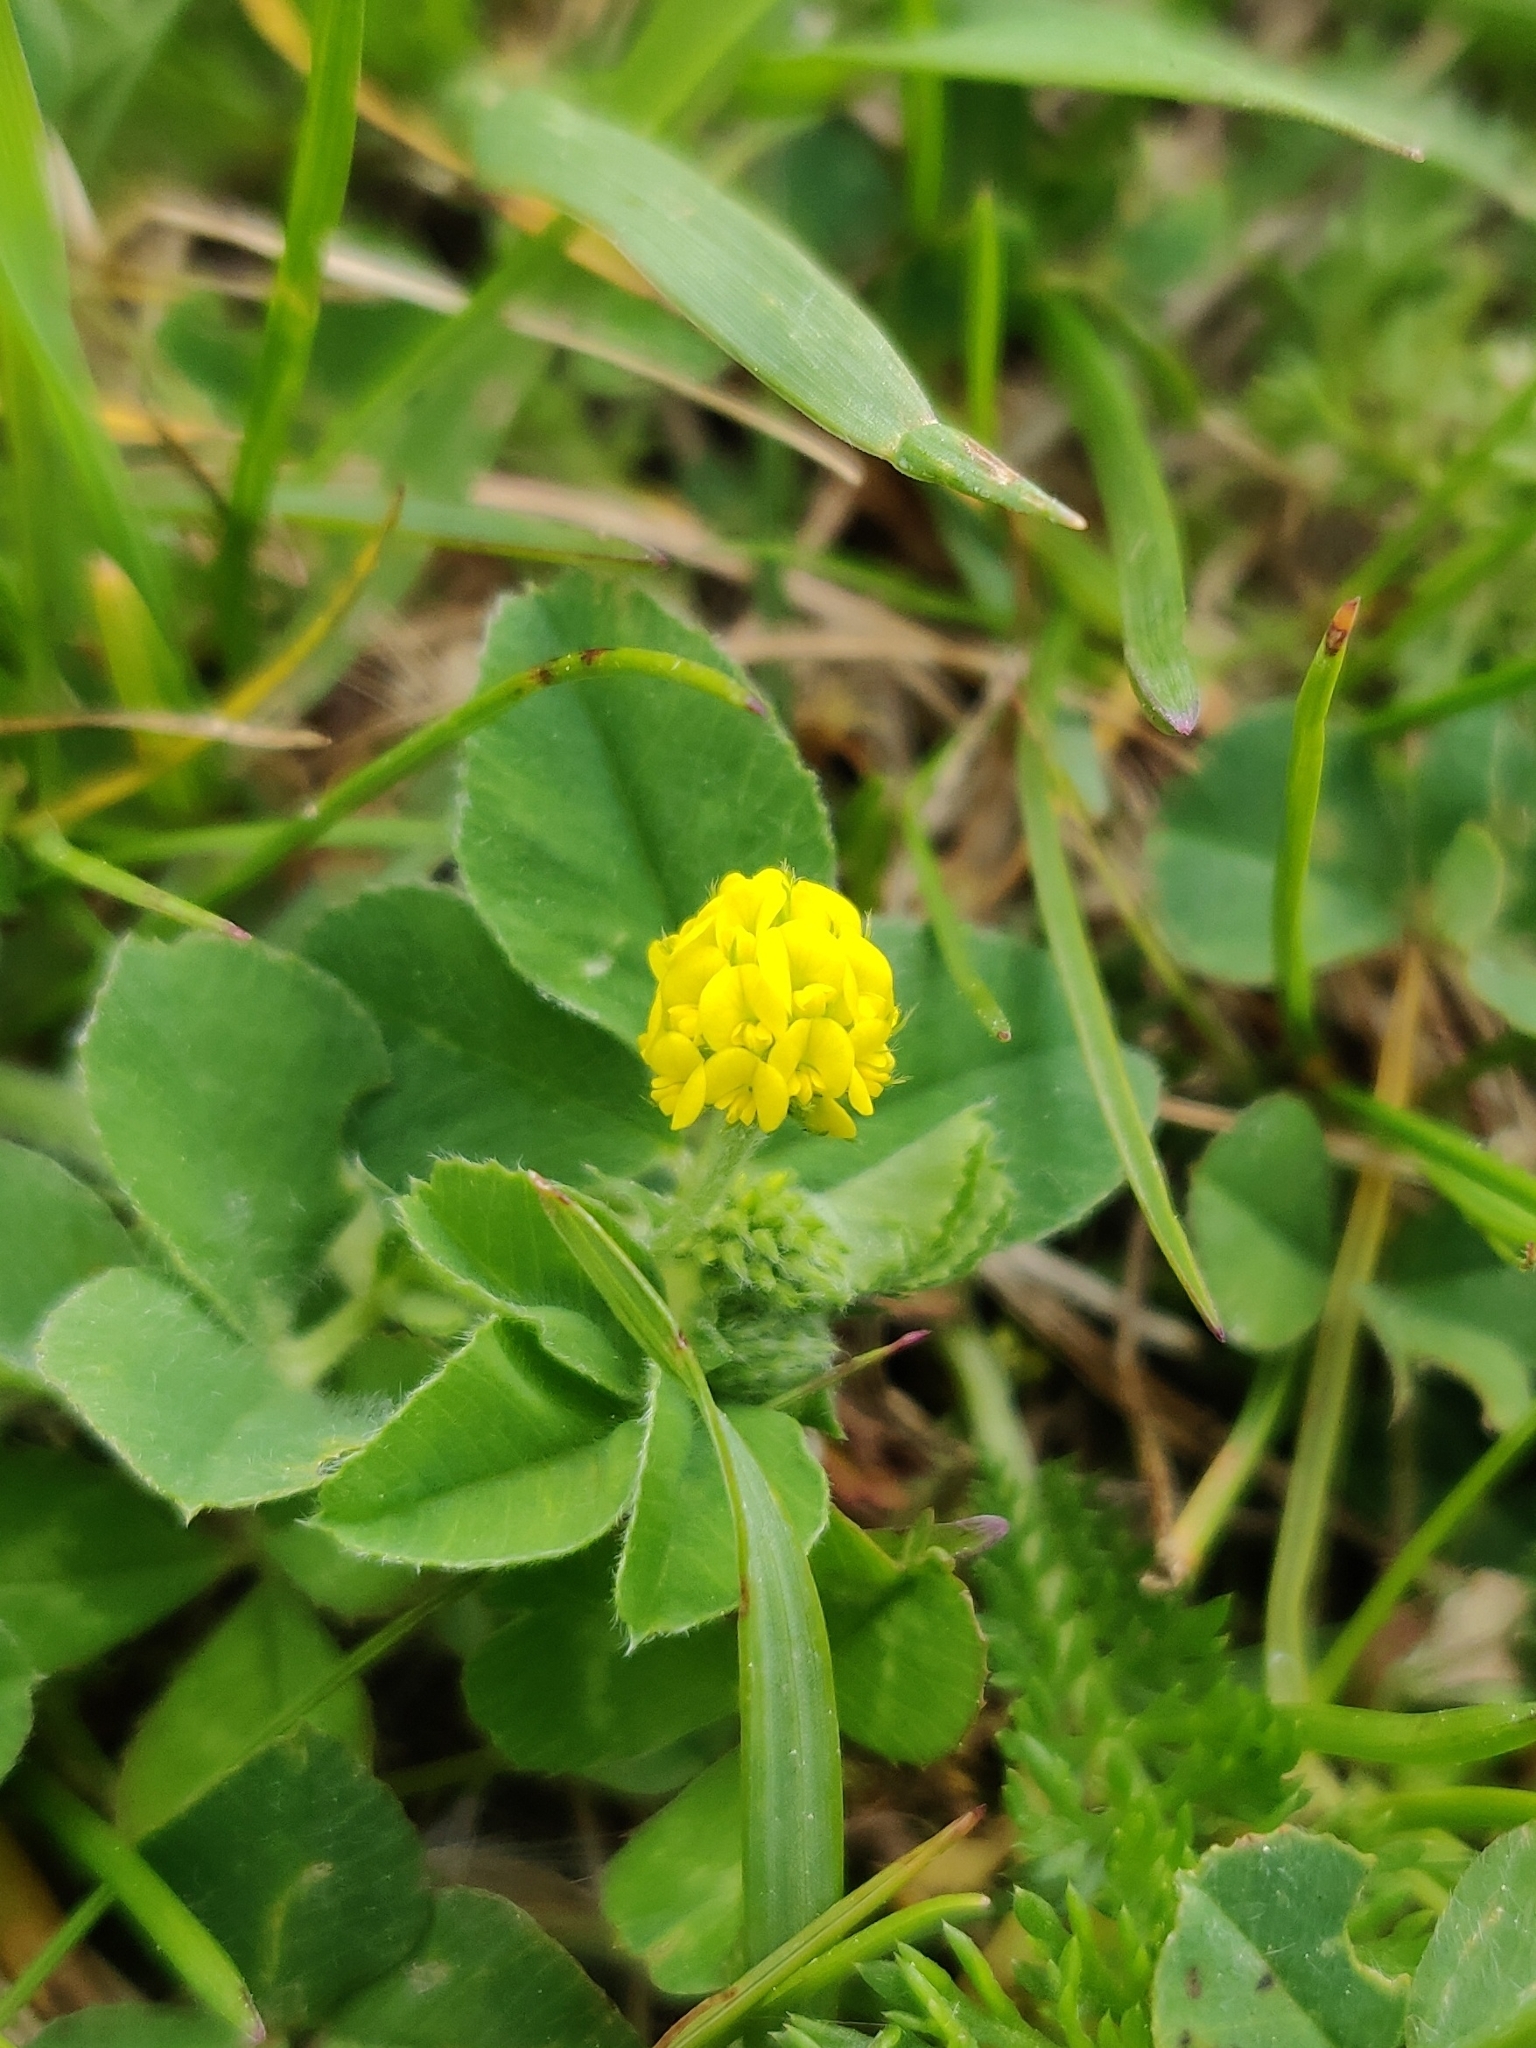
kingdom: Plantae
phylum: Tracheophyta
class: Magnoliopsida
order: Fabales
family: Fabaceae
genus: Medicago
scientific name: Medicago lupulina
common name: Black medick
